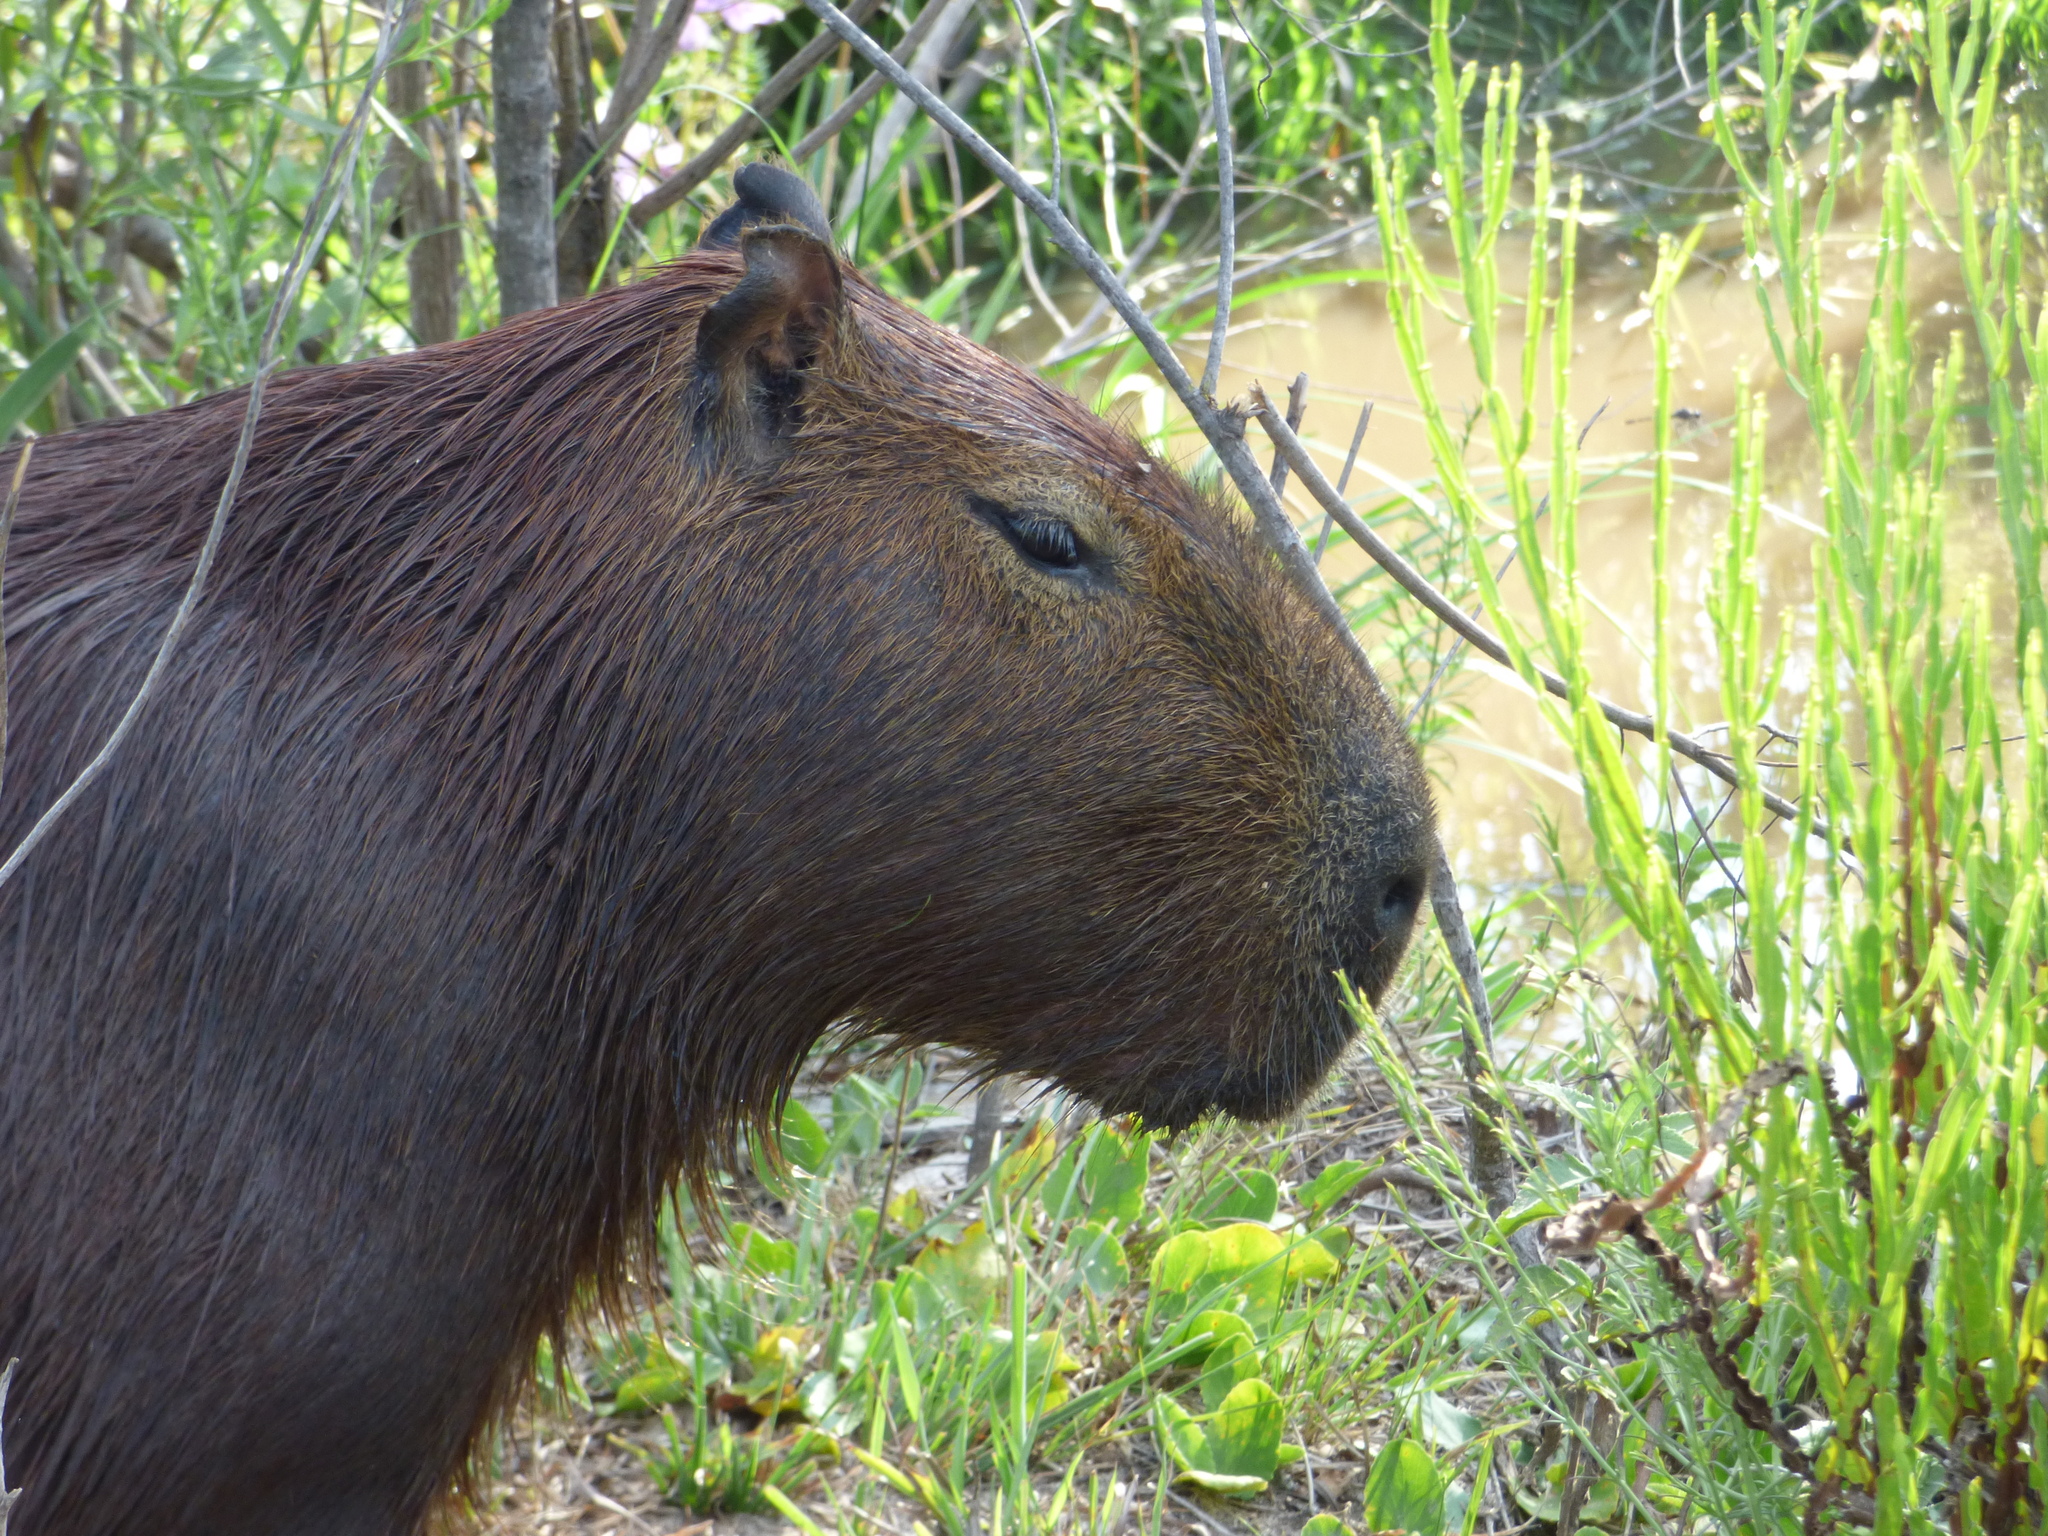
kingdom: Animalia
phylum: Chordata
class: Mammalia
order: Rodentia
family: Caviidae
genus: Hydrochoerus
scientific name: Hydrochoerus hydrochaeris
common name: Capybara
